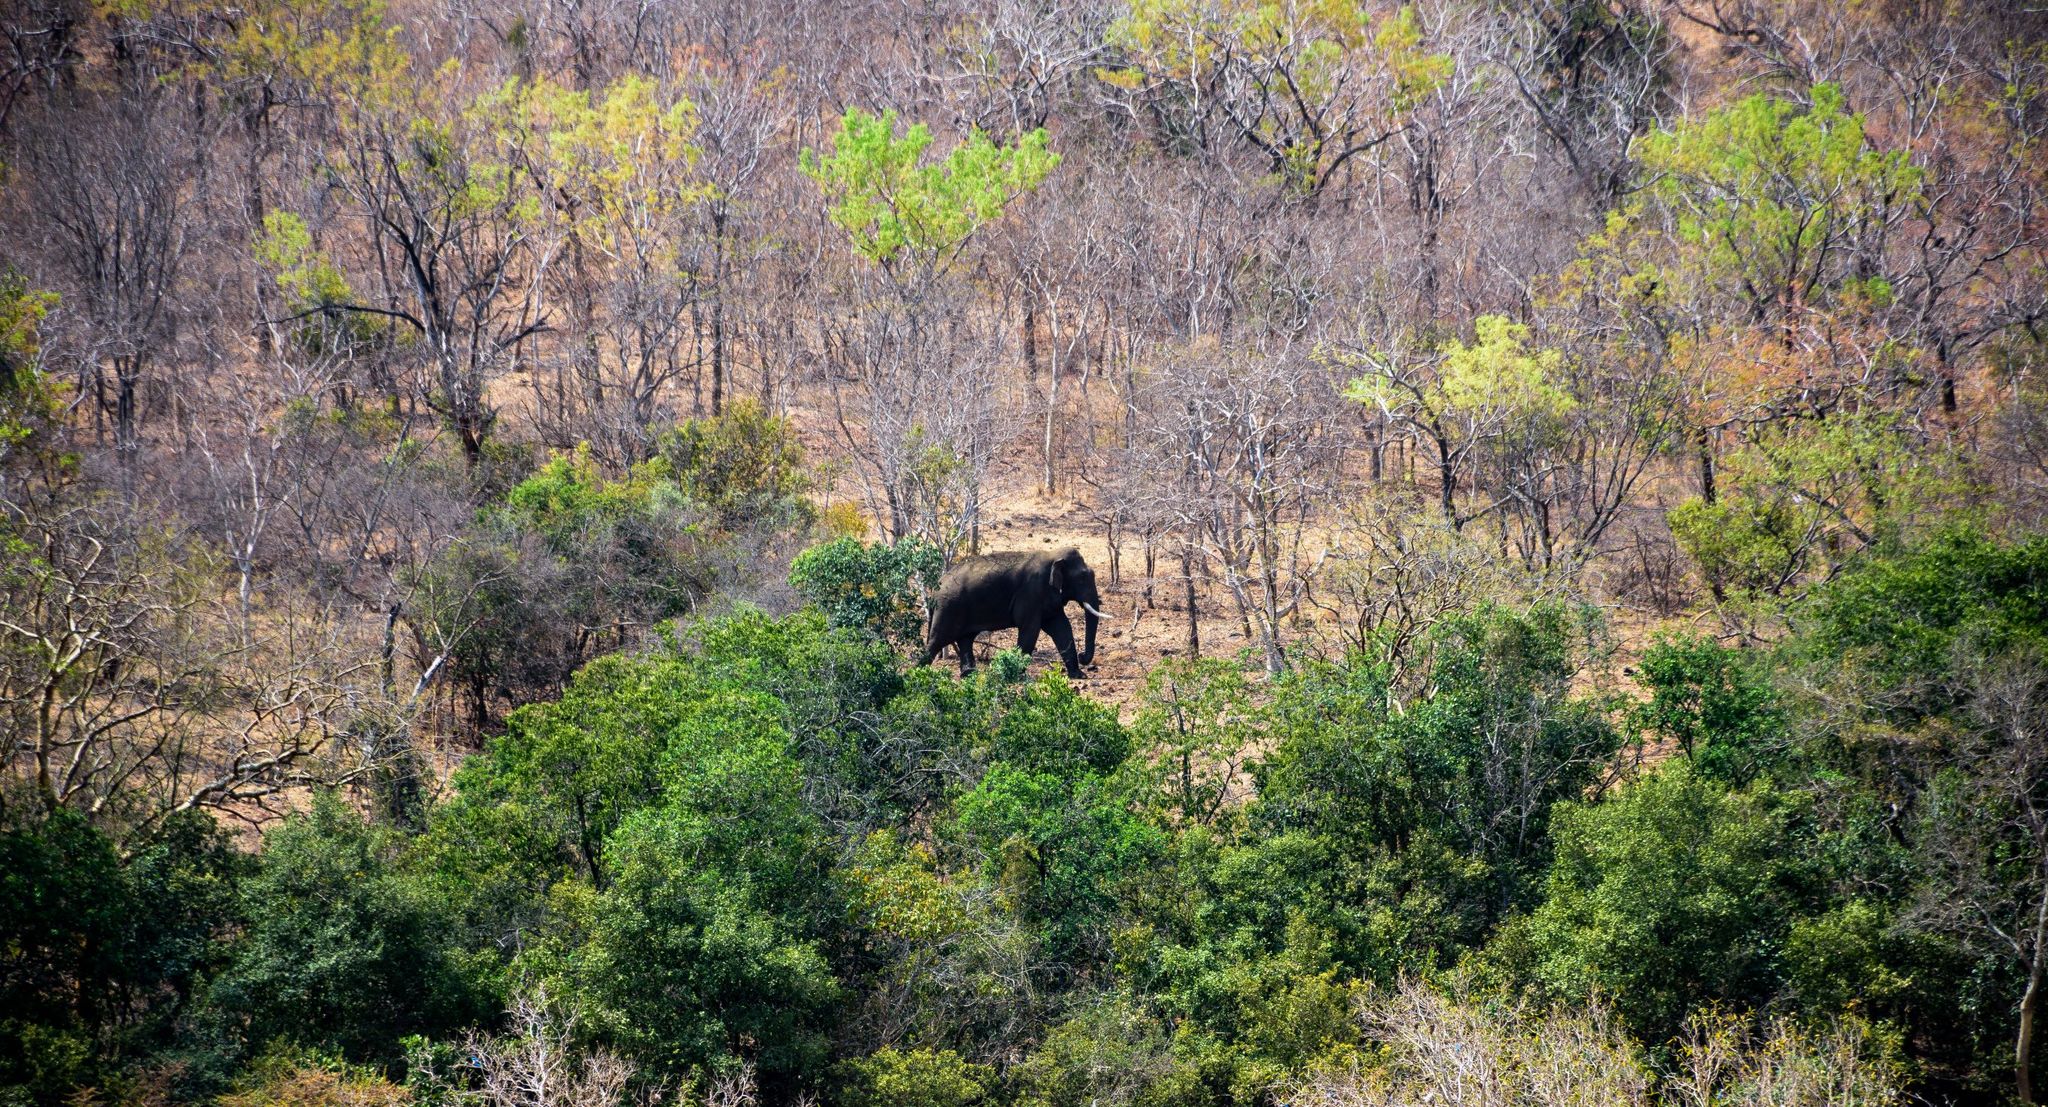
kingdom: Animalia
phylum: Chordata
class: Mammalia
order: Proboscidea
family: Elephantidae
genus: Elephas
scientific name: Elephas maximus
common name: Asian elephant
